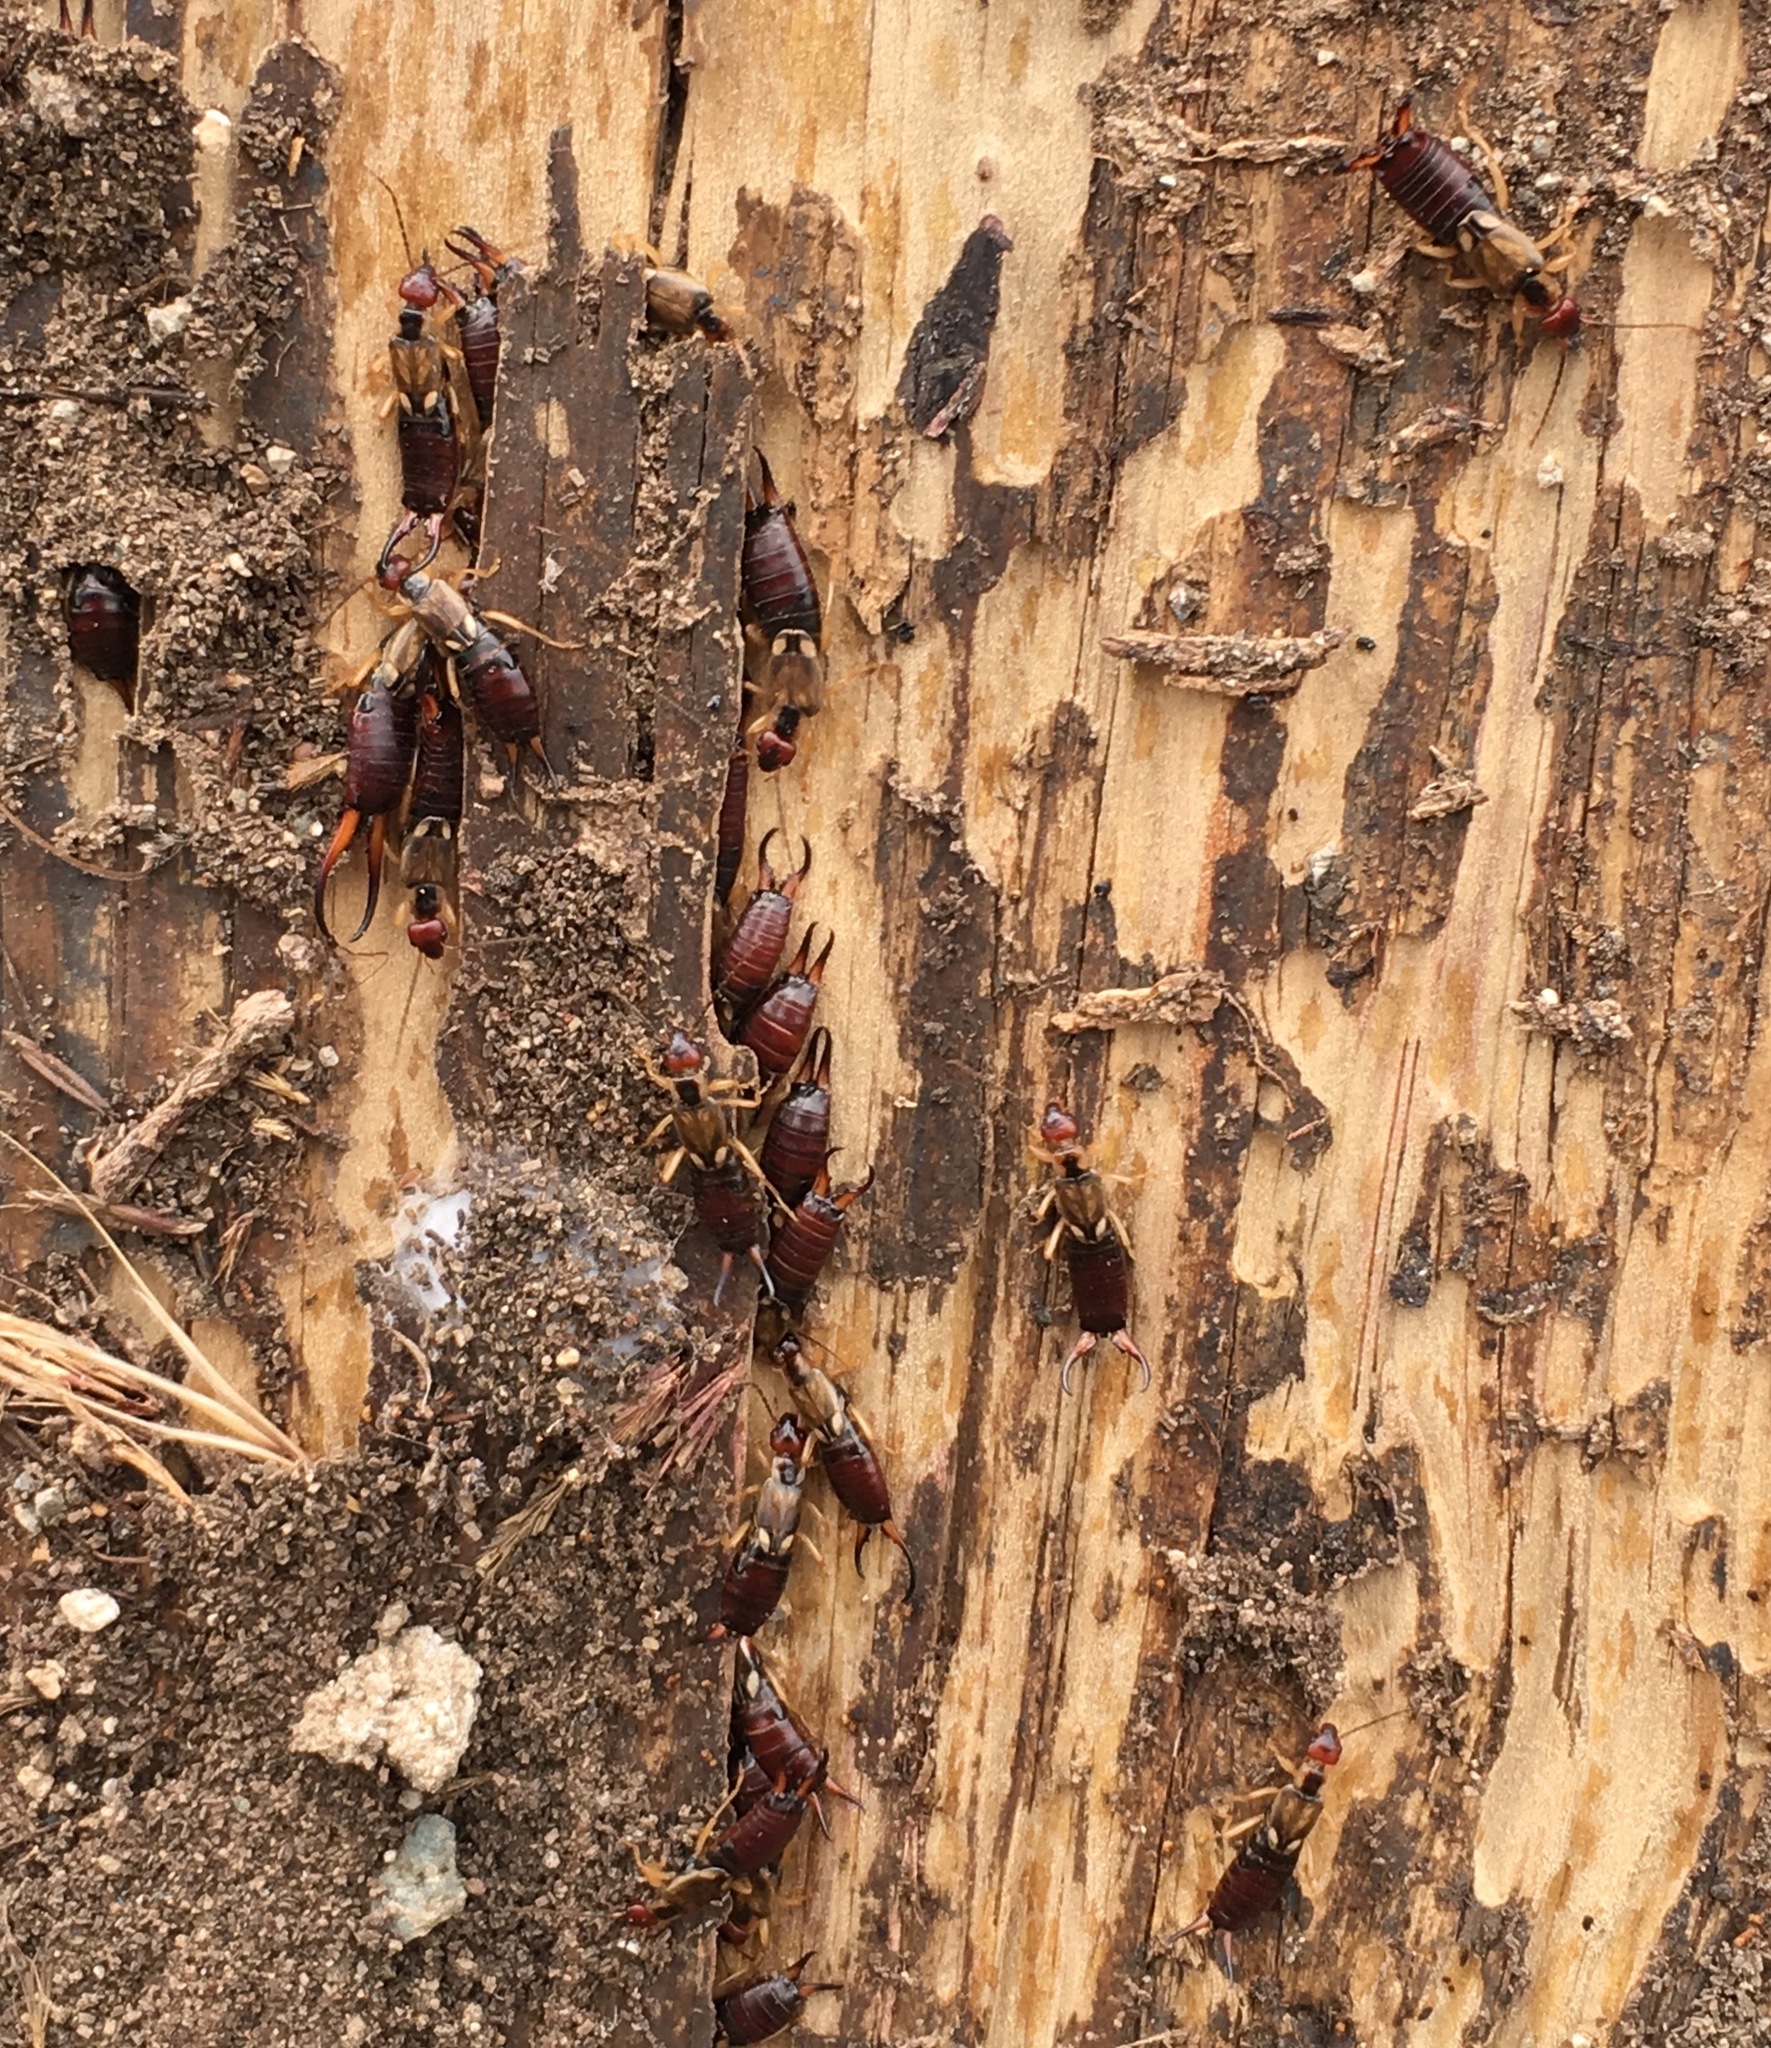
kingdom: Animalia
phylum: Arthropoda
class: Insecta
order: Dermaptera
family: Forficulidae
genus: Forficula
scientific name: Forficula
